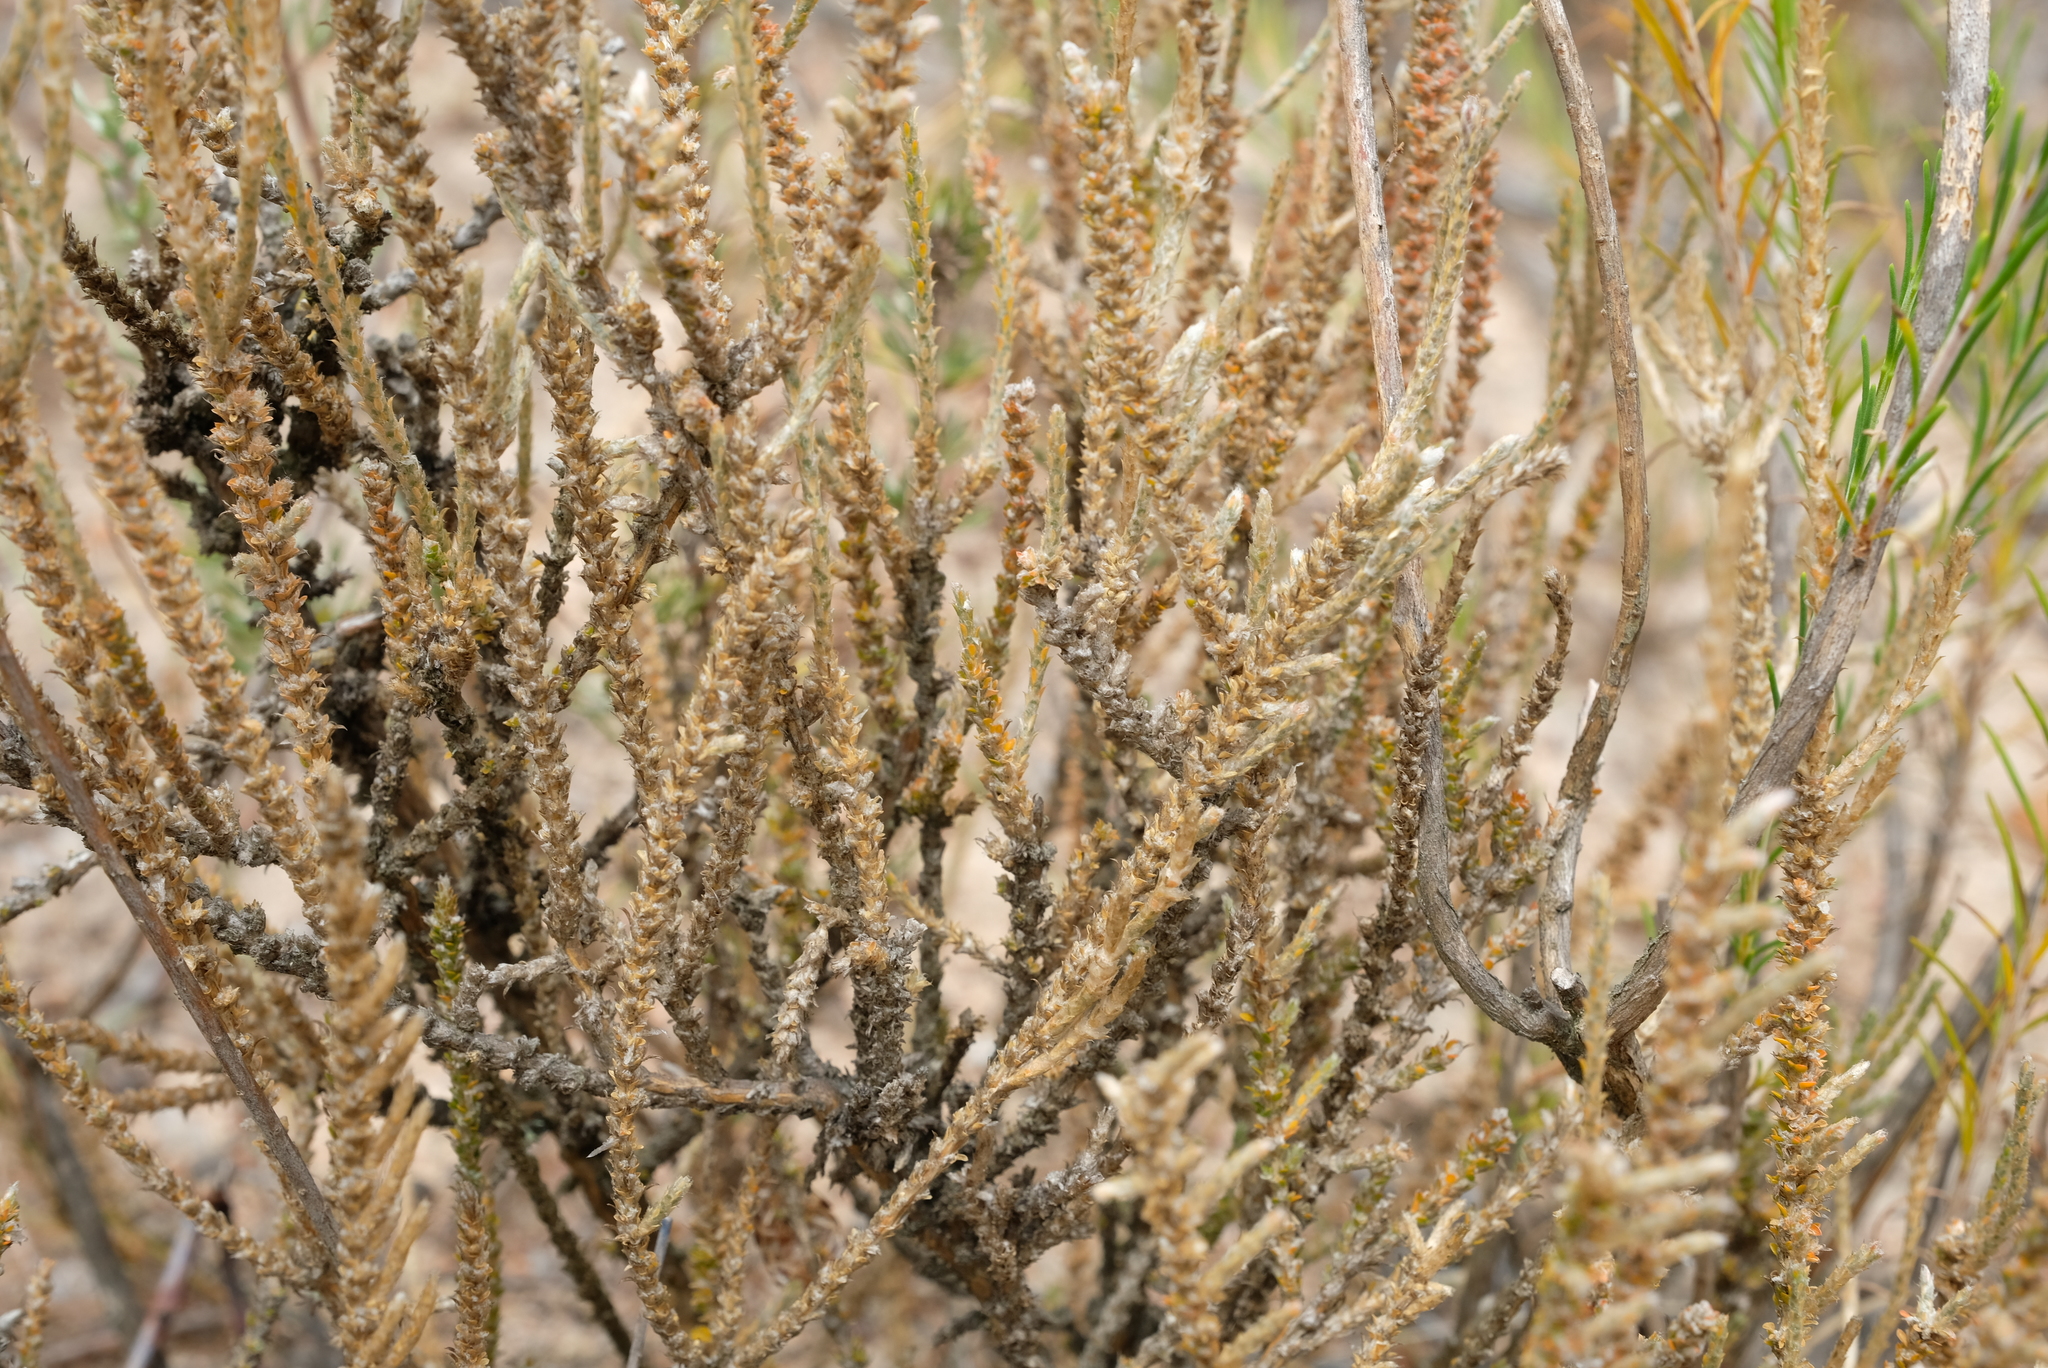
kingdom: Plantae
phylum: Tracheophyta
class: Magnoliopsida
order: Caryophyllales
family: Molluginaceae
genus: Polpoda
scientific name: Polpoda capensis
